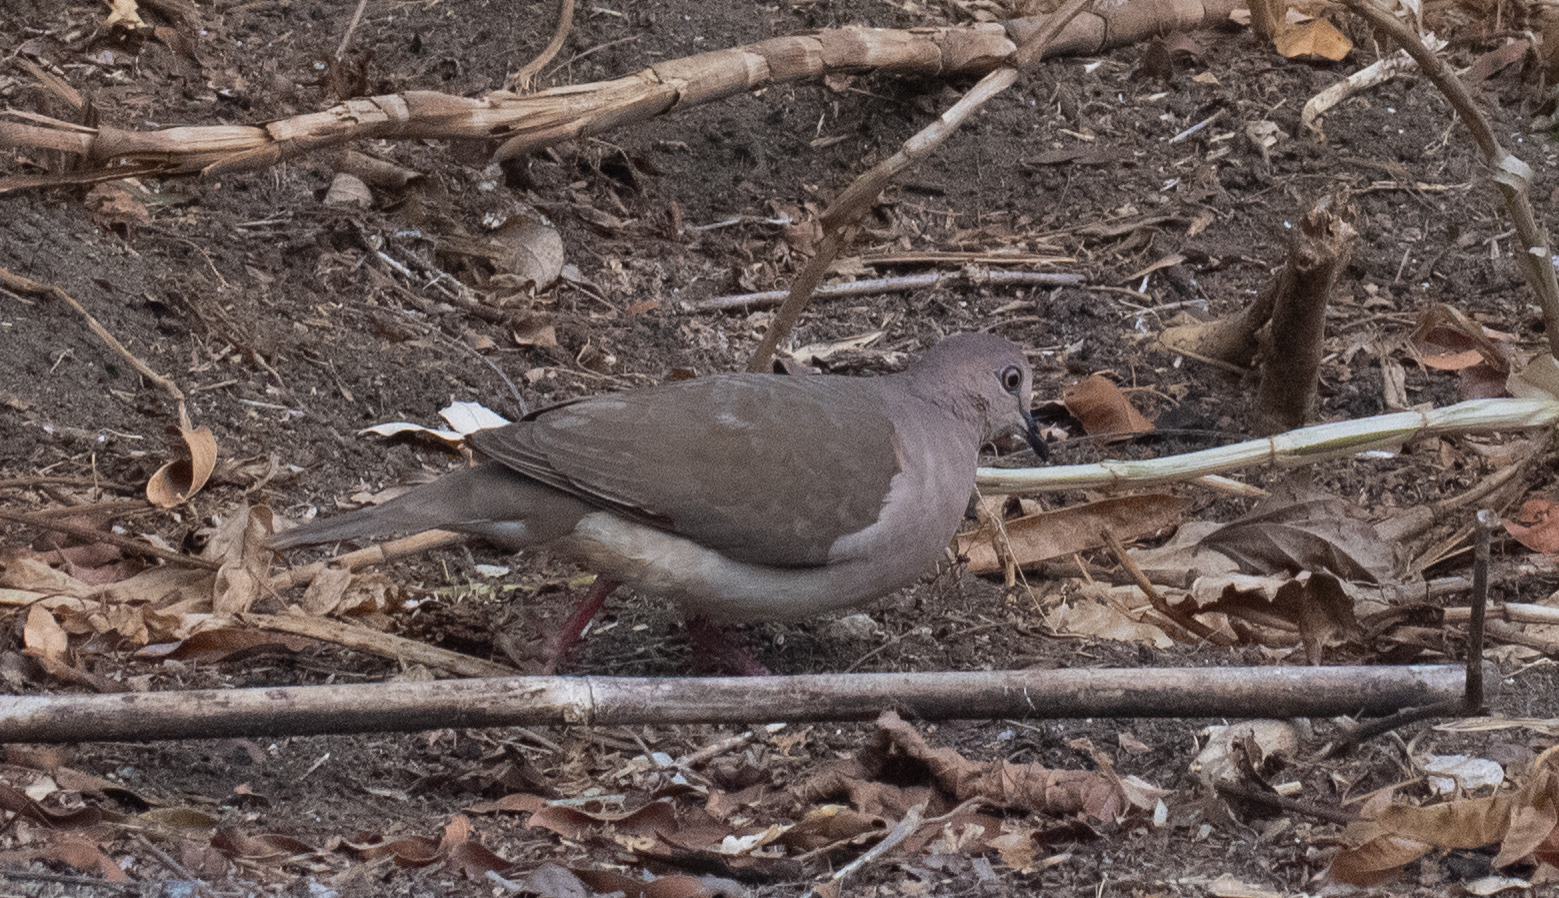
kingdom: Animalia
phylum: Chordata
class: Aves
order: Columbiformes
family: Columbidae
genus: Leptotila
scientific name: Leptotila verreauxi
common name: White-tipped dove
